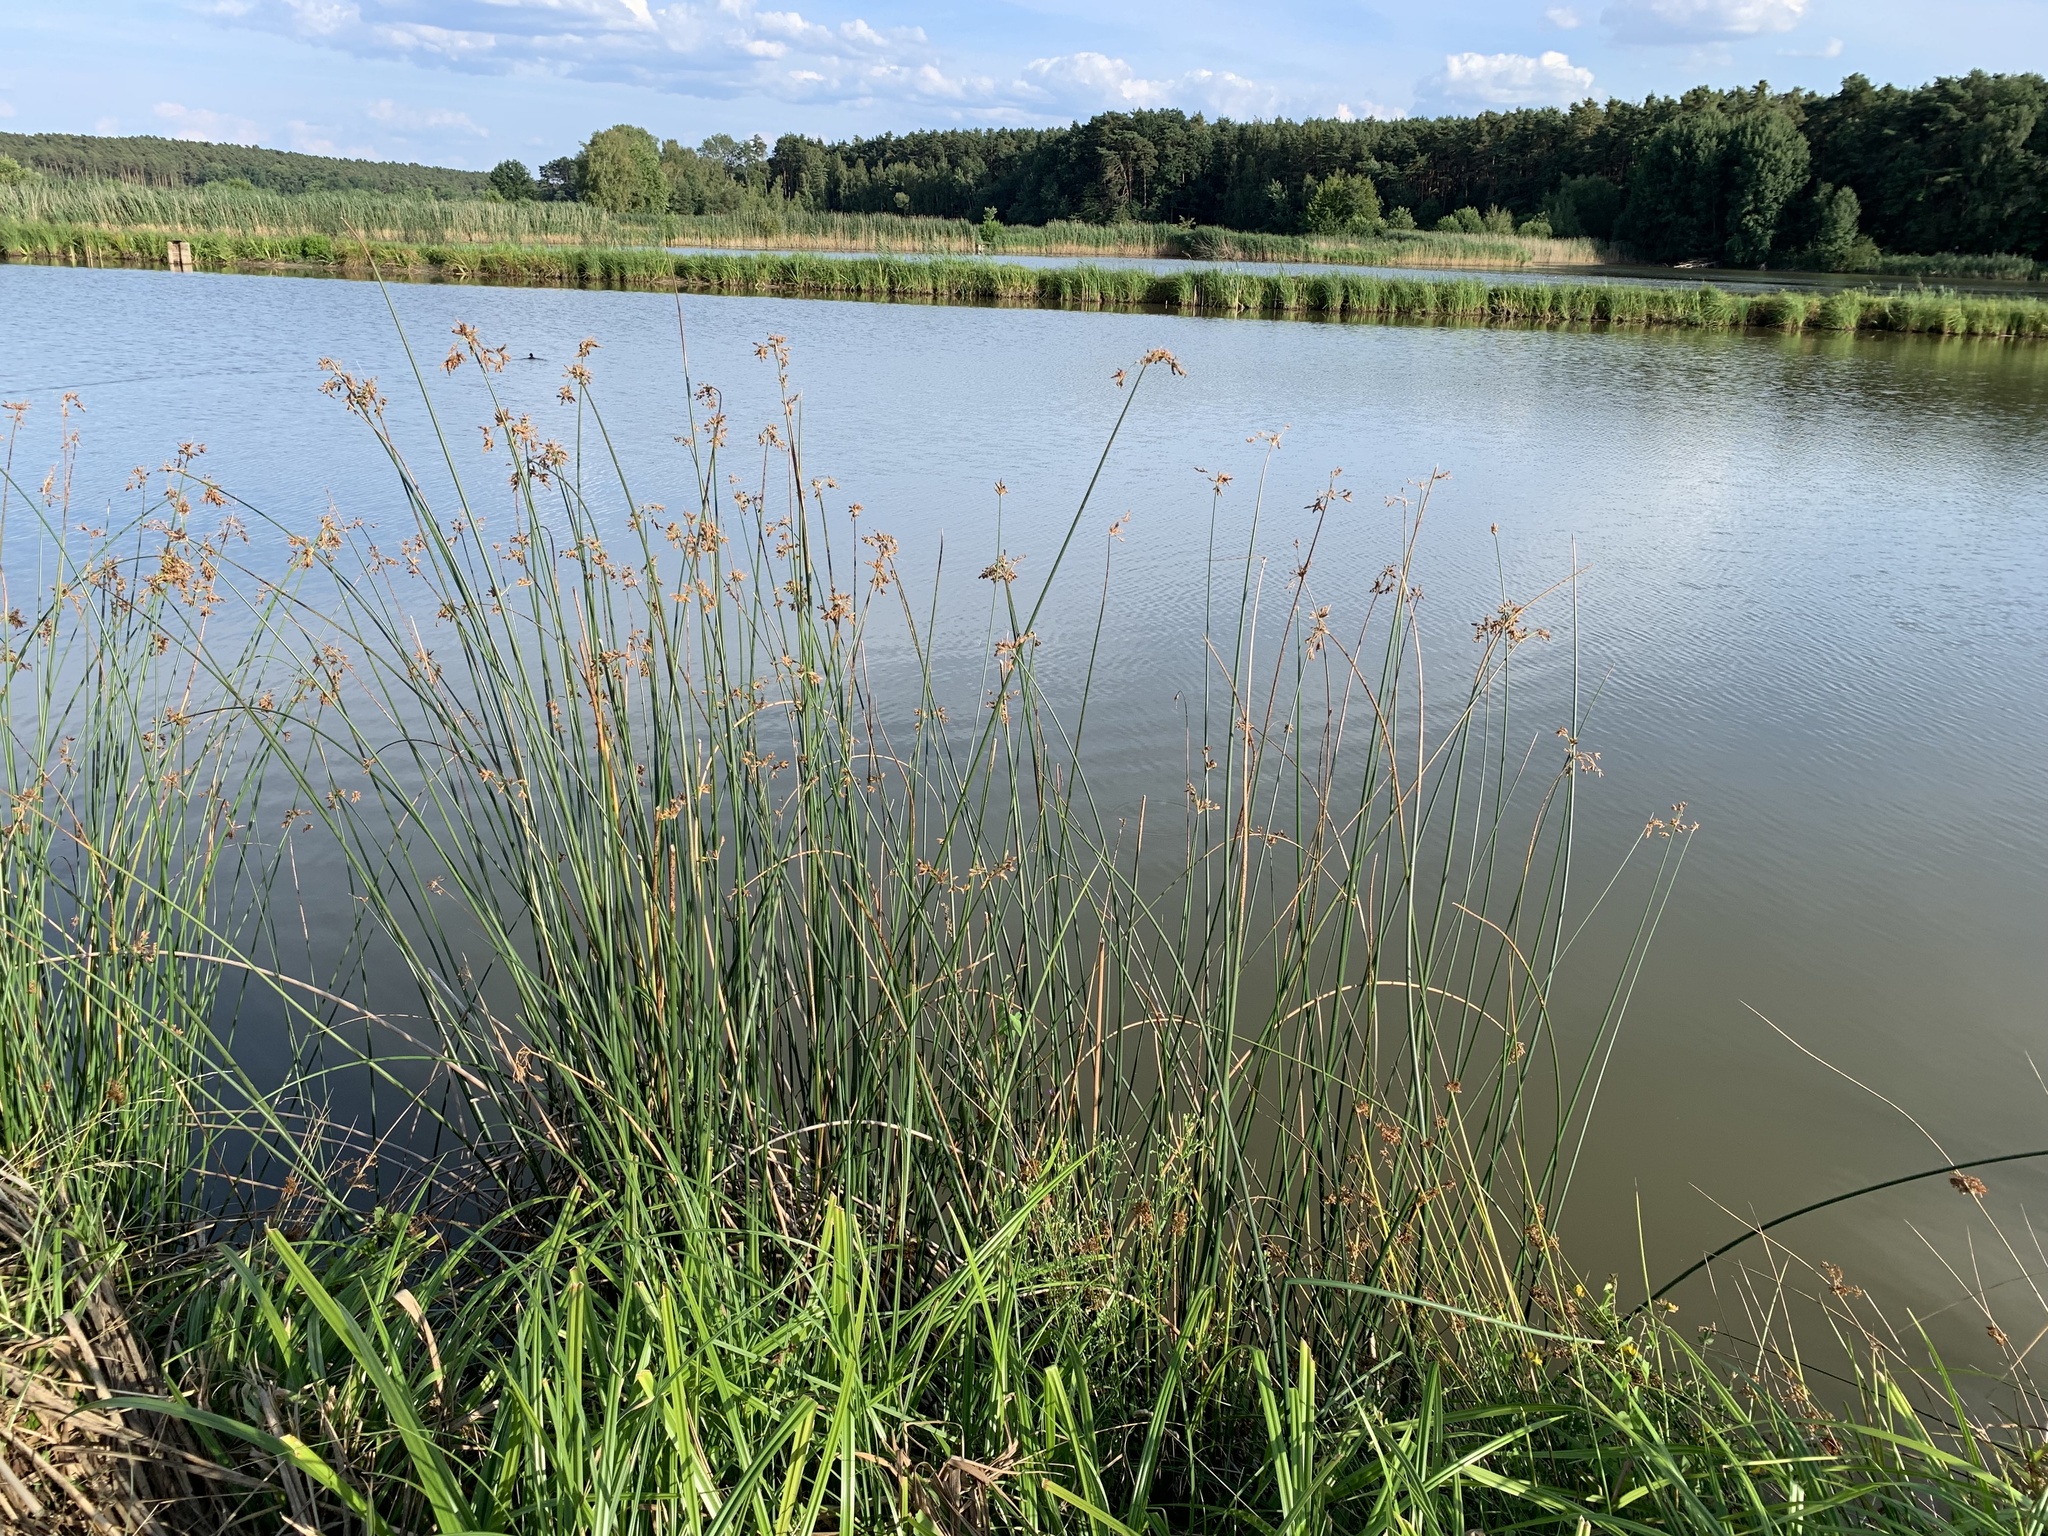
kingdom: Plantae
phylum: Tracheophyta
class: Liliopsida
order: Poales
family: Cyperaceae
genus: Schoenoplectus
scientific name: Schoenoplectus lacustris
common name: Common club-rush
